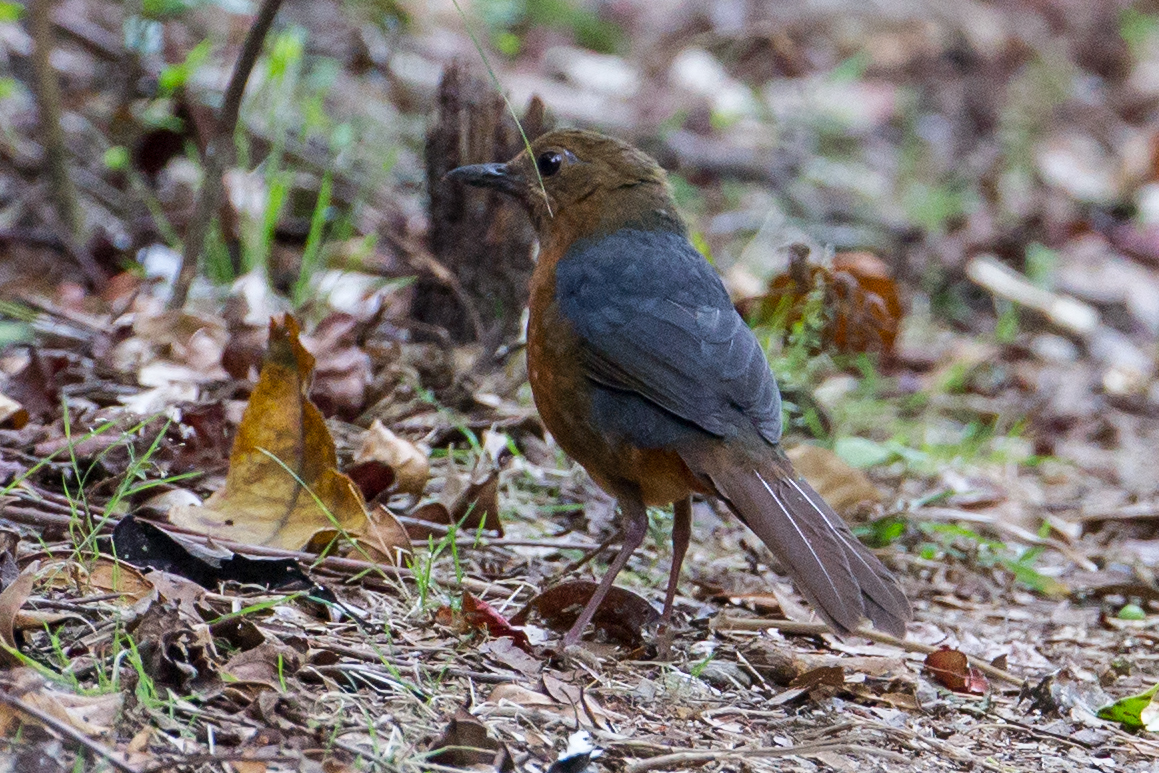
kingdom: Animalia
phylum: Chordata
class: Aves
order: Passeriformes
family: Turdidae
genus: Geomalia
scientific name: Geomalia heinrichi
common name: Geomalia
